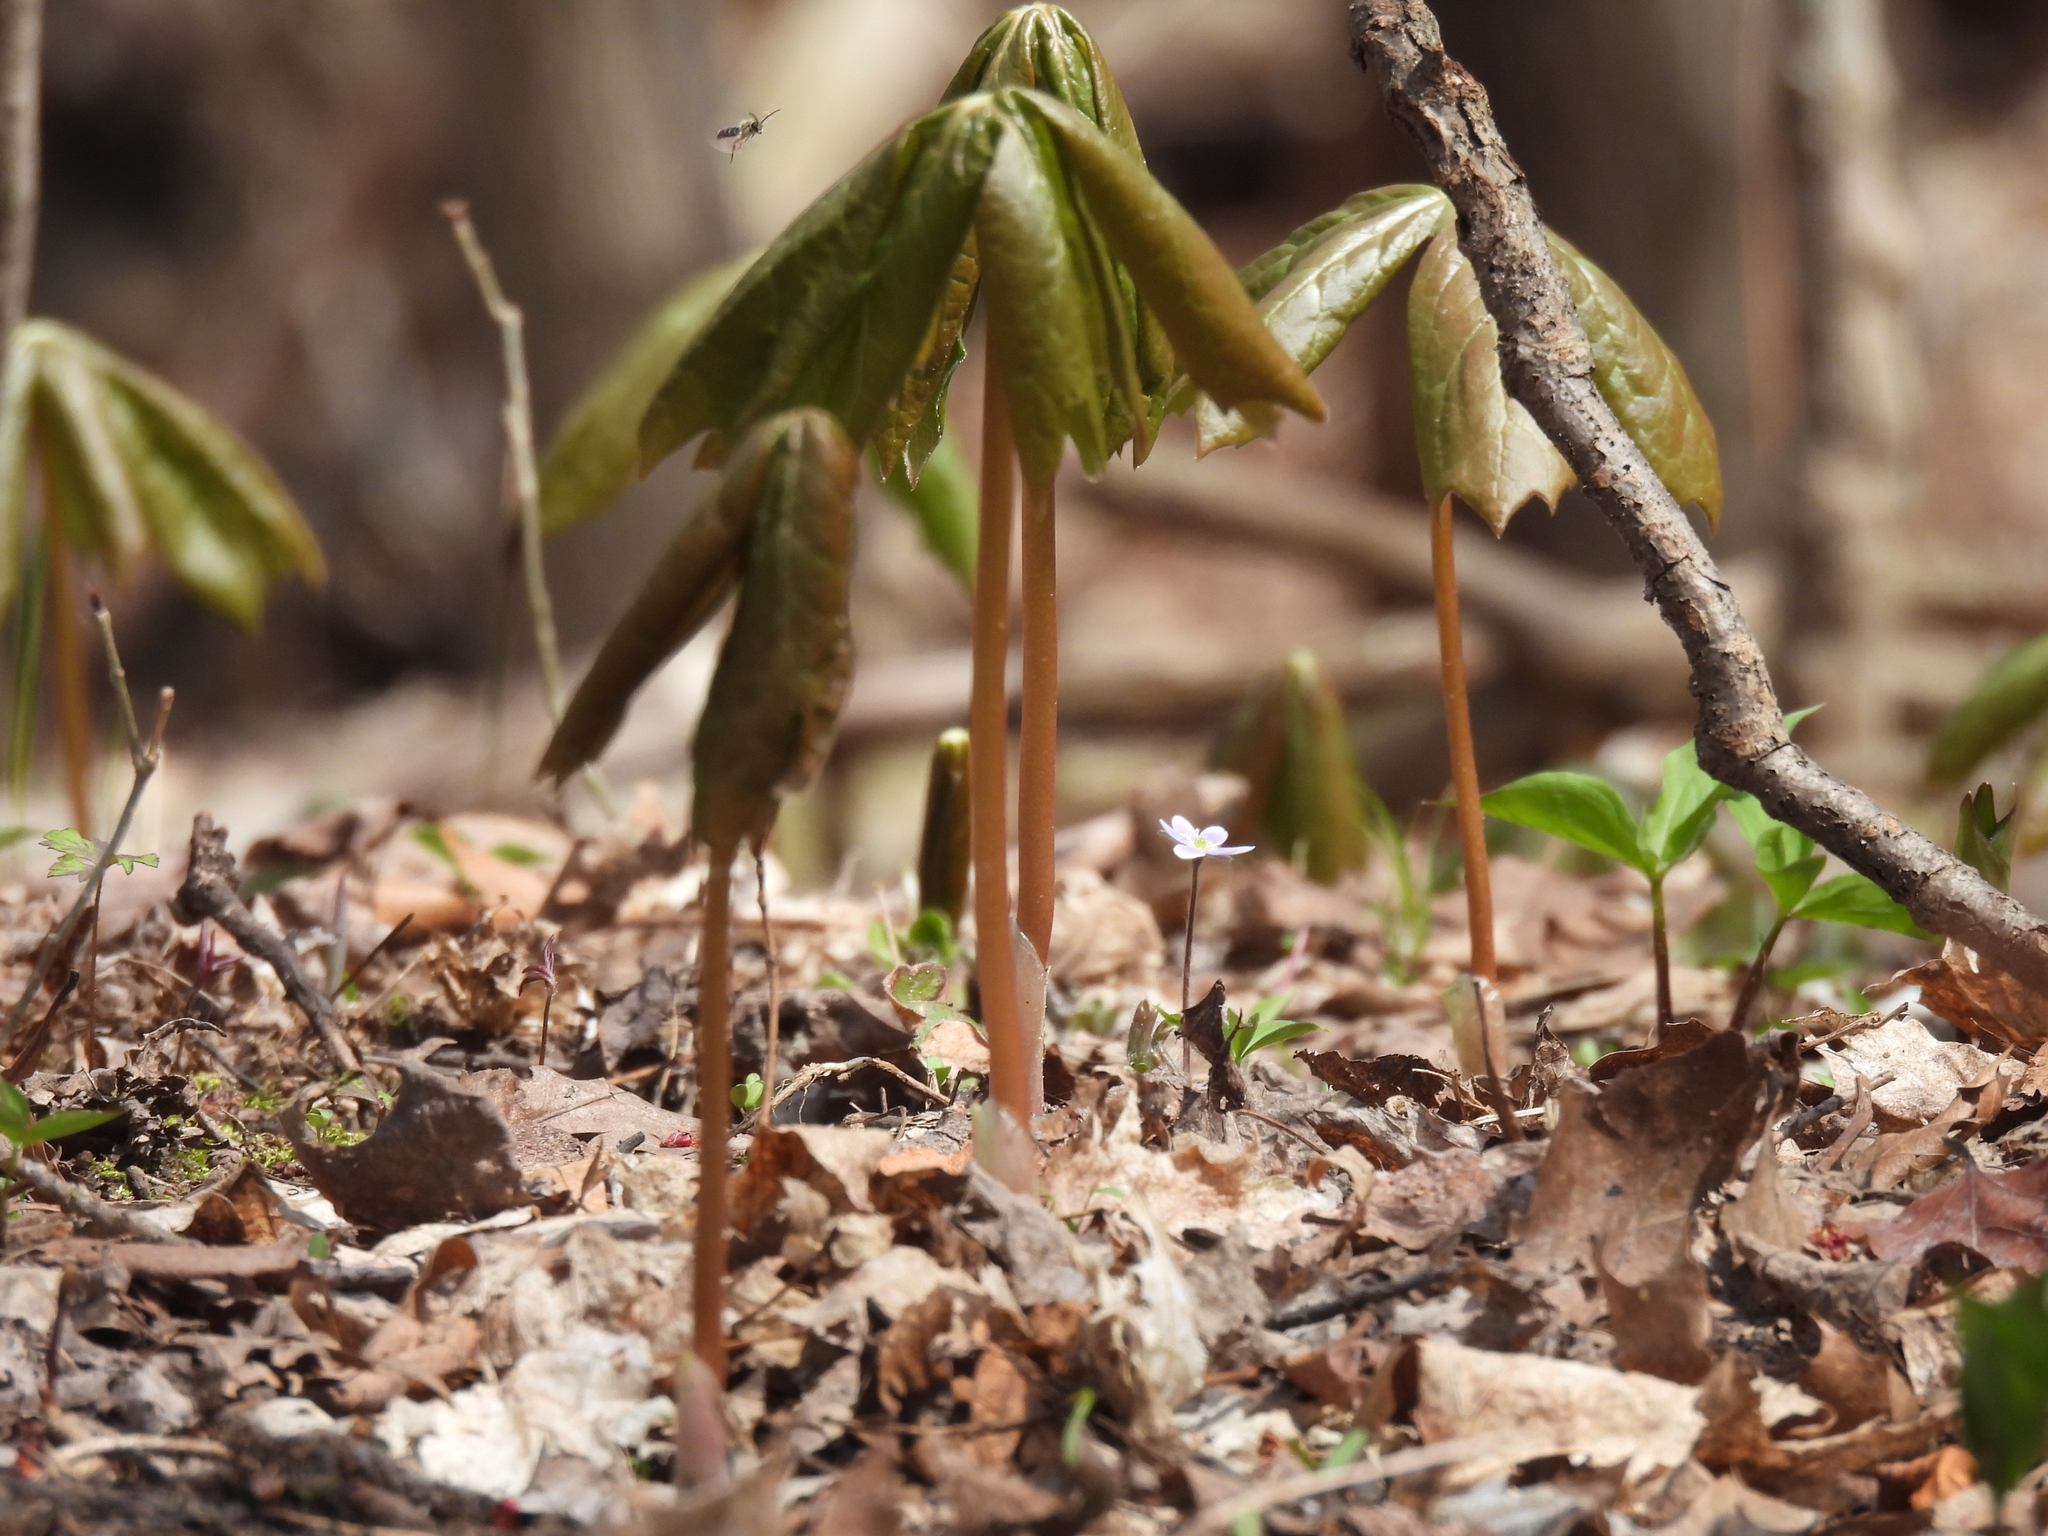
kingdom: Plantae
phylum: Tracheophyta
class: Magnoliopsida
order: Ranunculales
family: Berberidaceae
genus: Podophyllum
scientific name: Podophyllum peltatum
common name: Wild mandrake
